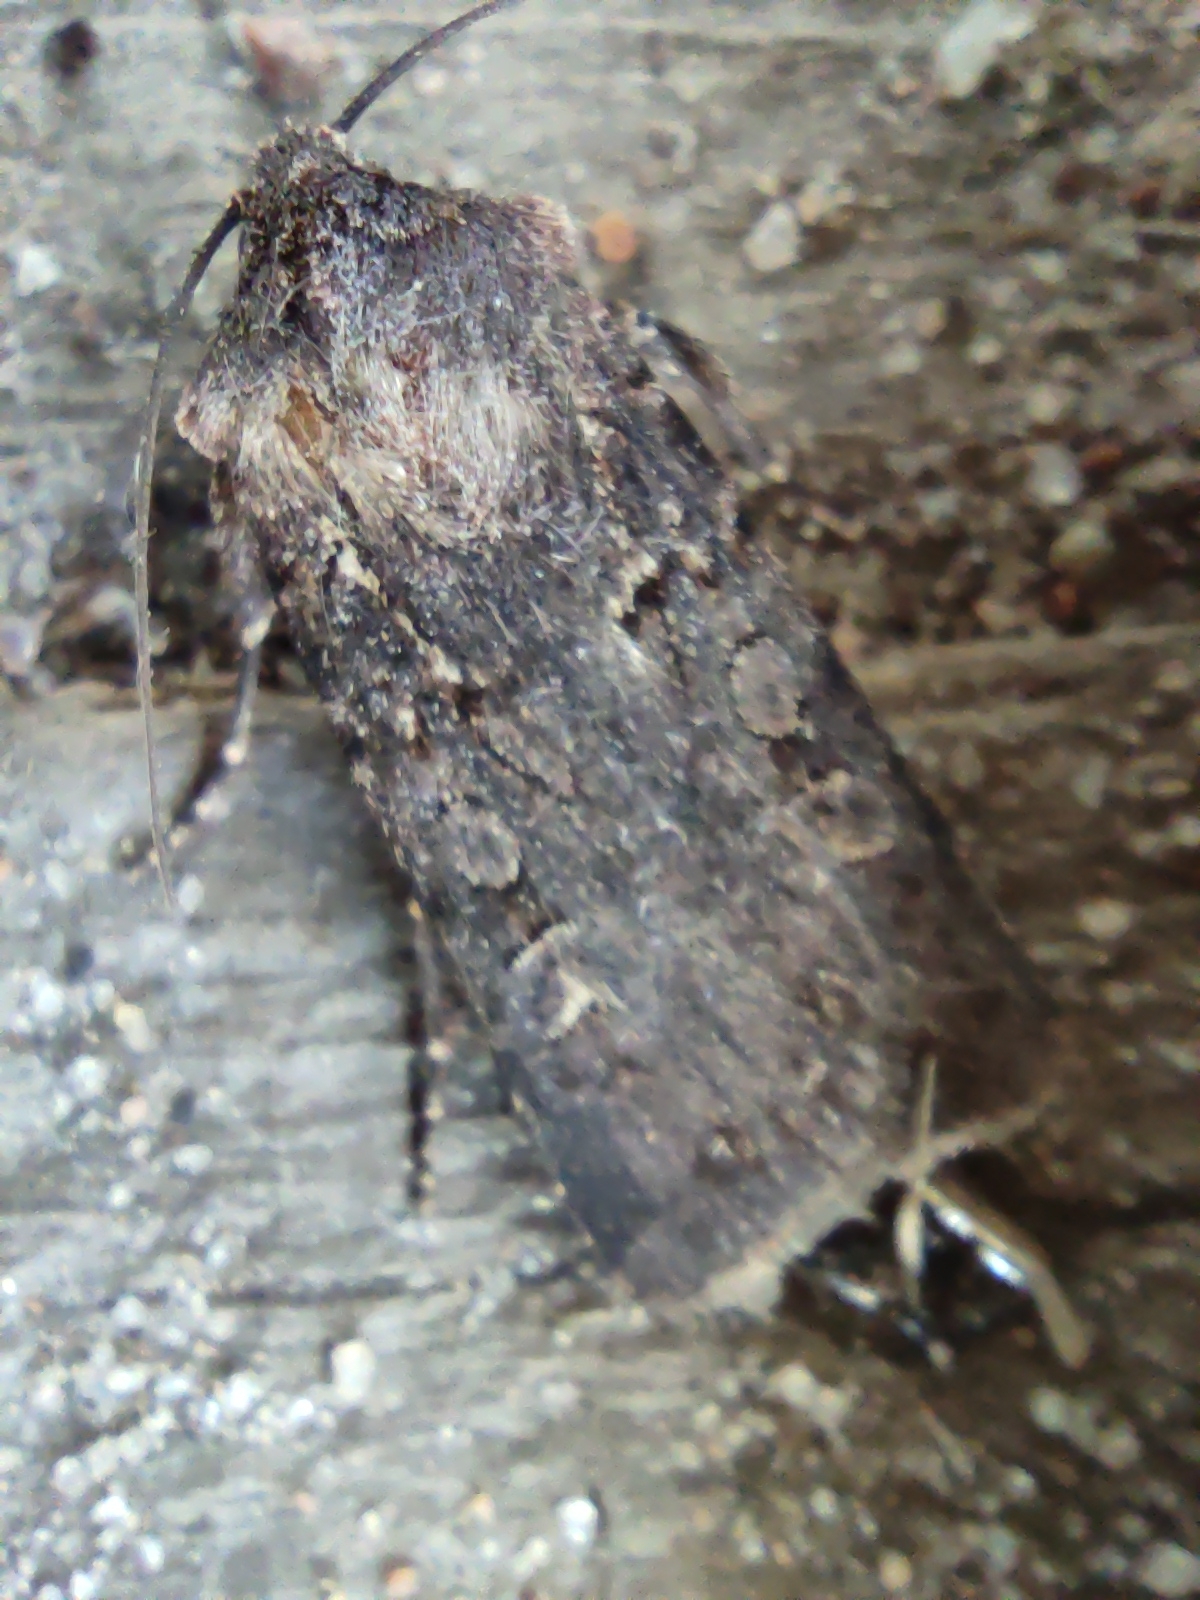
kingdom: Animalia
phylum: Arthropoda
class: Insecta
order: Lepidoptera
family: Noctuidae
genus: Euxoa
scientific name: Euxoa nigricans
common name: Garden dart
